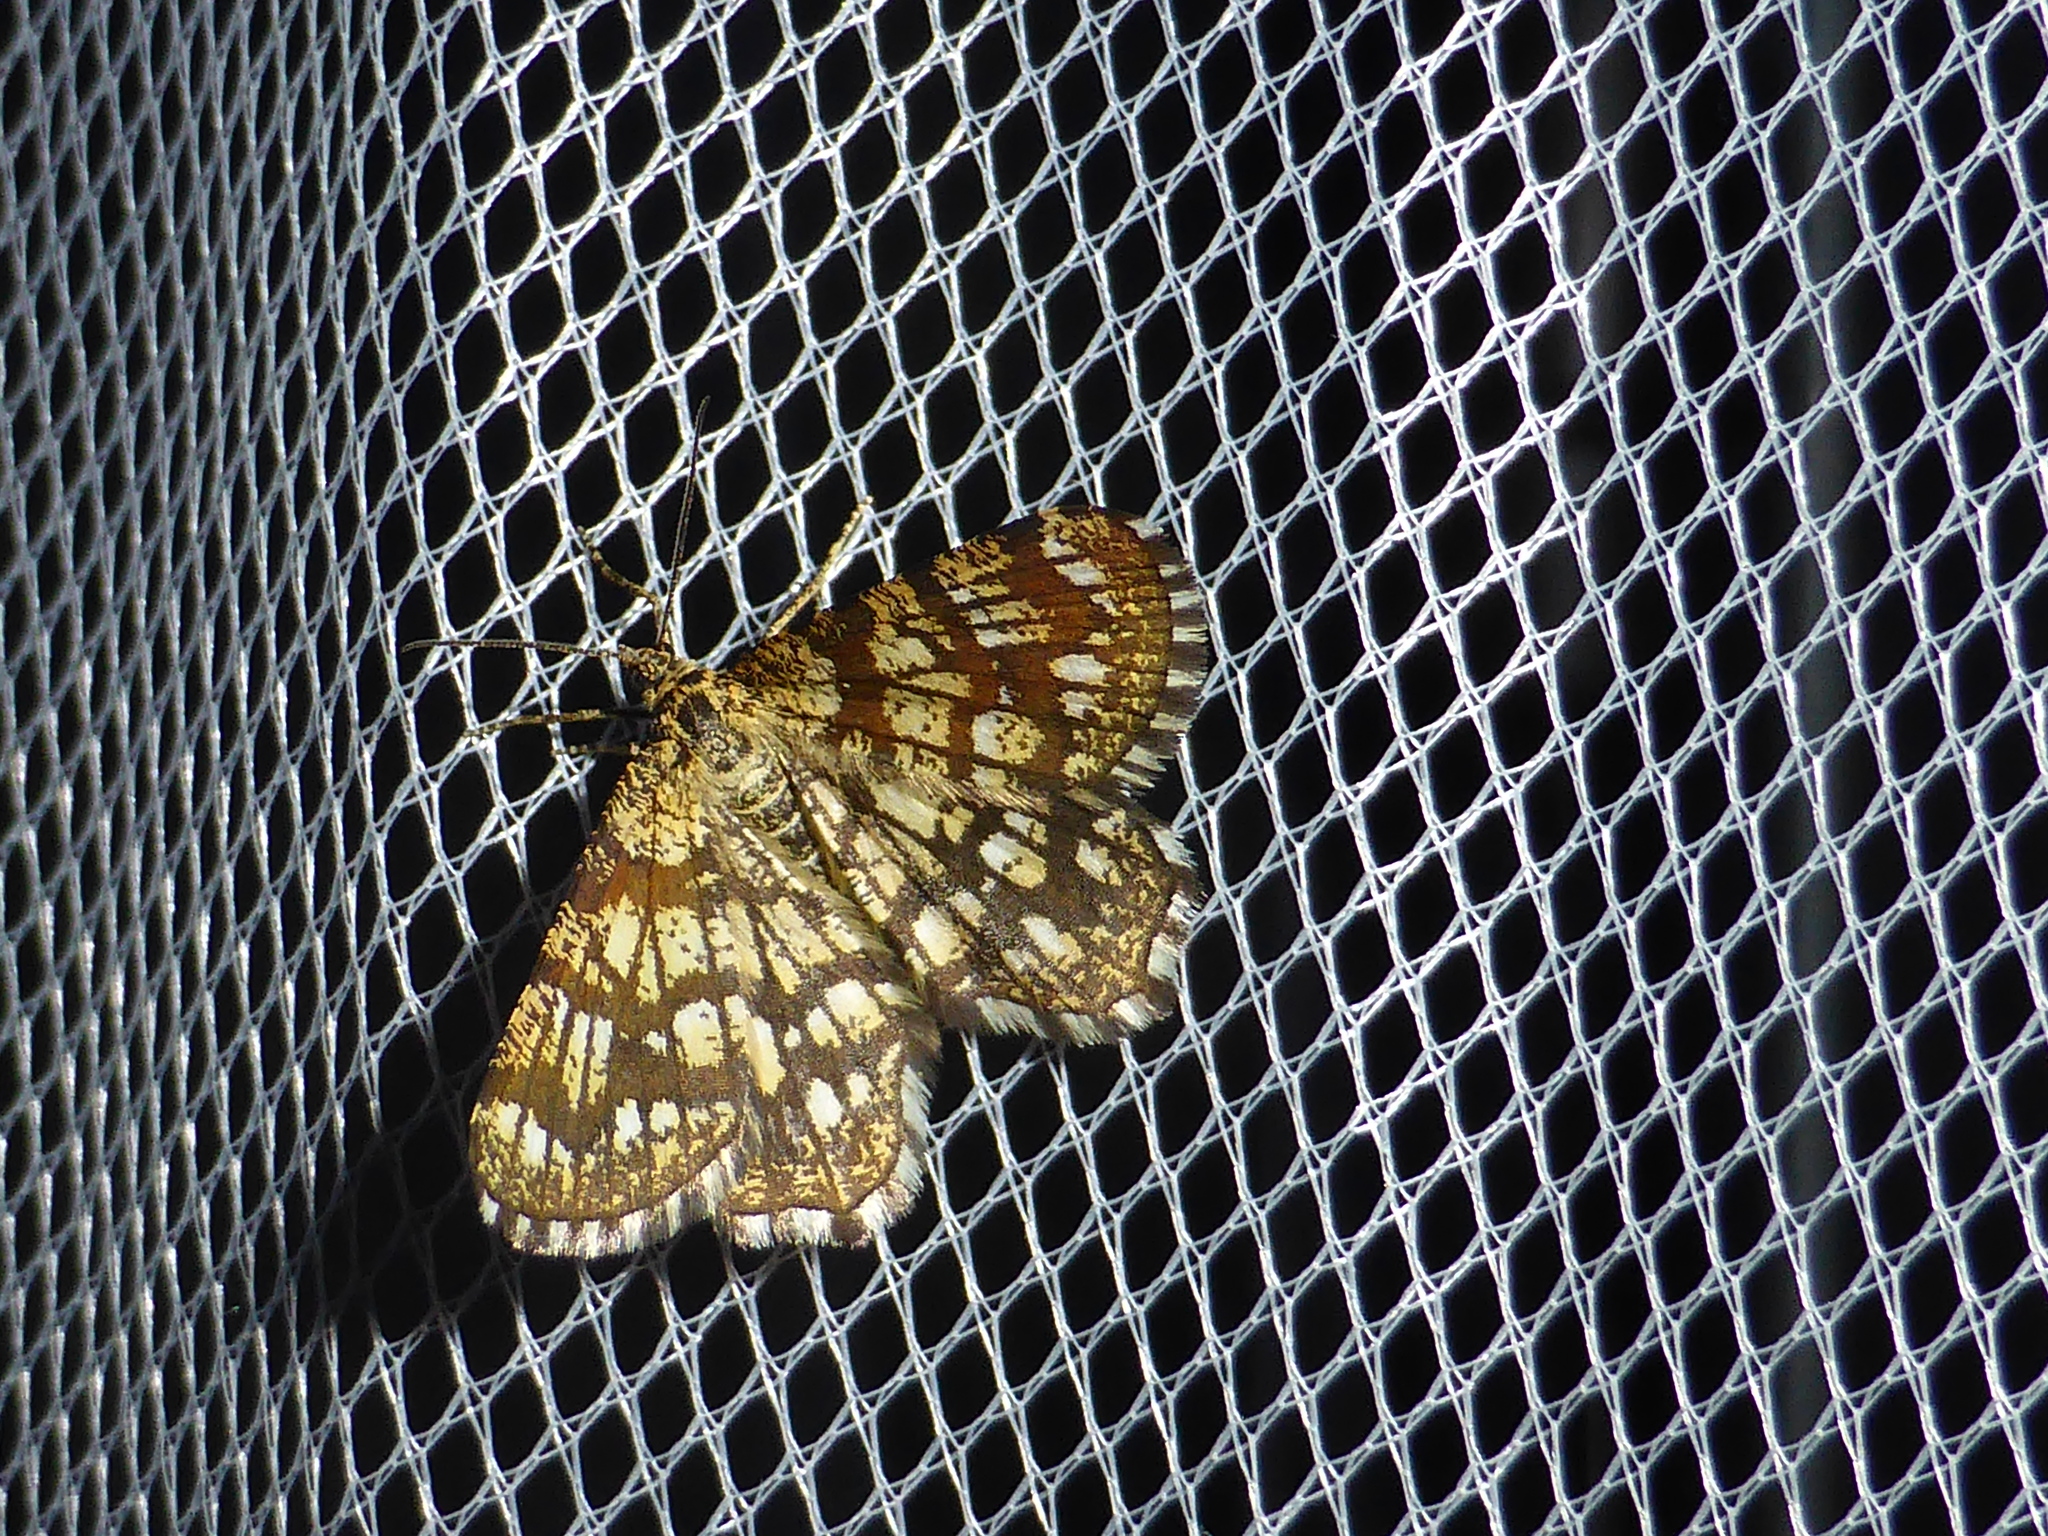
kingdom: Animalia
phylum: Arthropoda
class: Insecta
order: Lepidoptera
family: Geometridae
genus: Chiasmia
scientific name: Chiasmia clathrata
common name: Latticed heath
